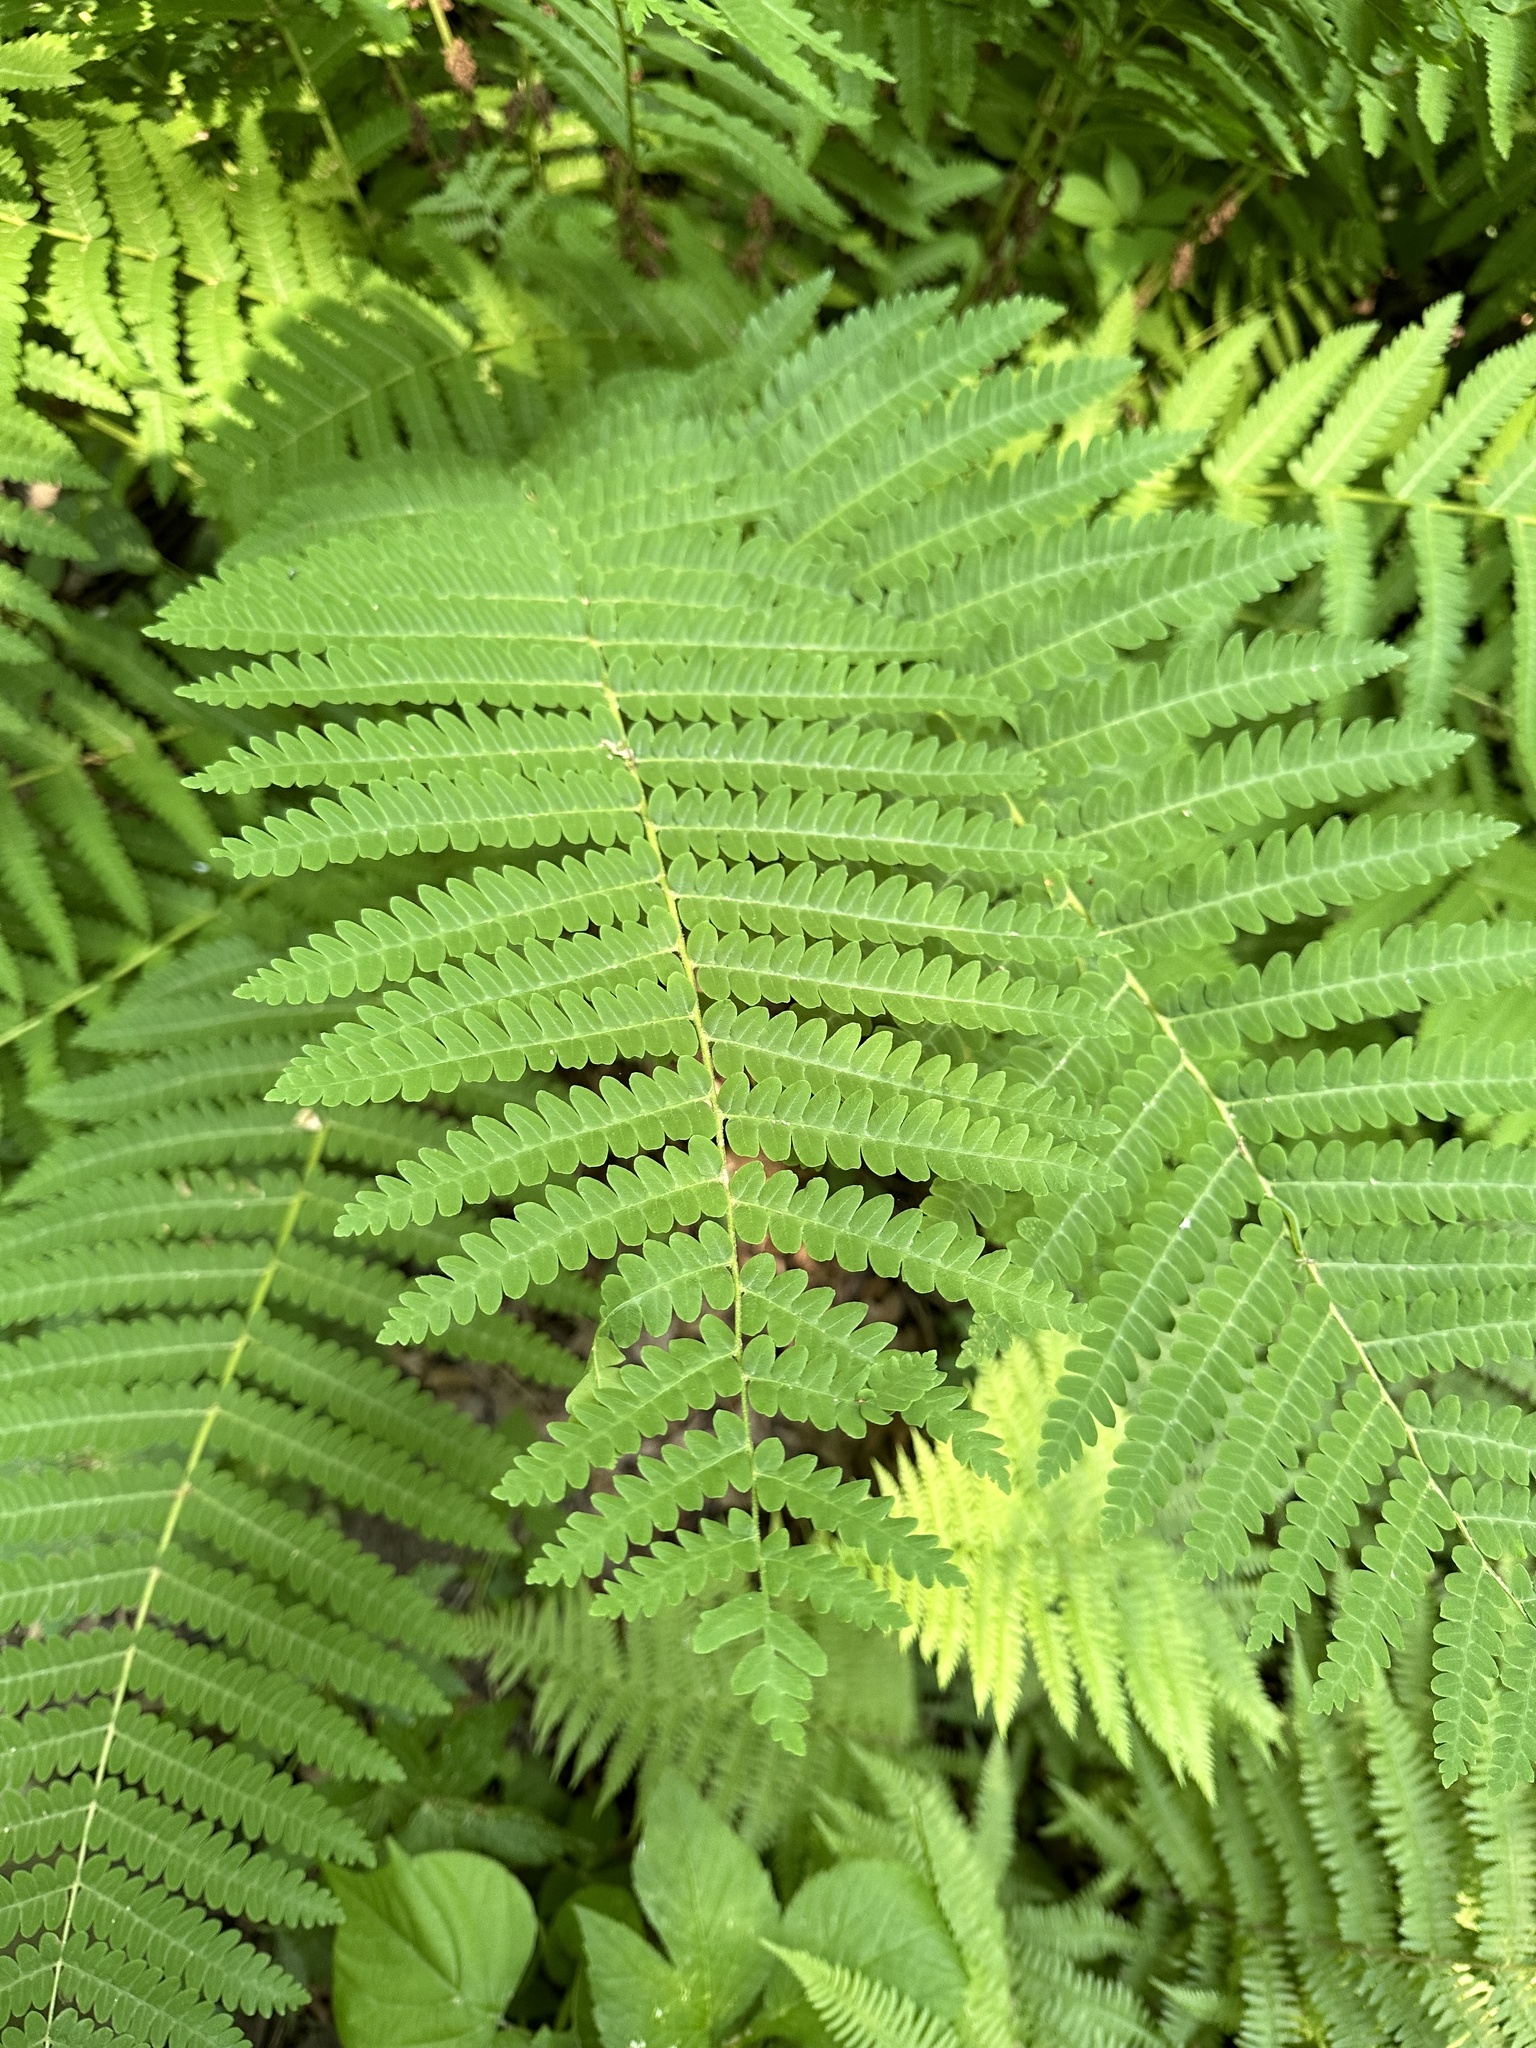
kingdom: Plantae
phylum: Tracheophyta
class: Polypodiopsida
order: Osmundales
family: Osmundaceae
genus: Claytosmunda
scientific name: Claytosmunda claytoniana
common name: Clayton's fern
